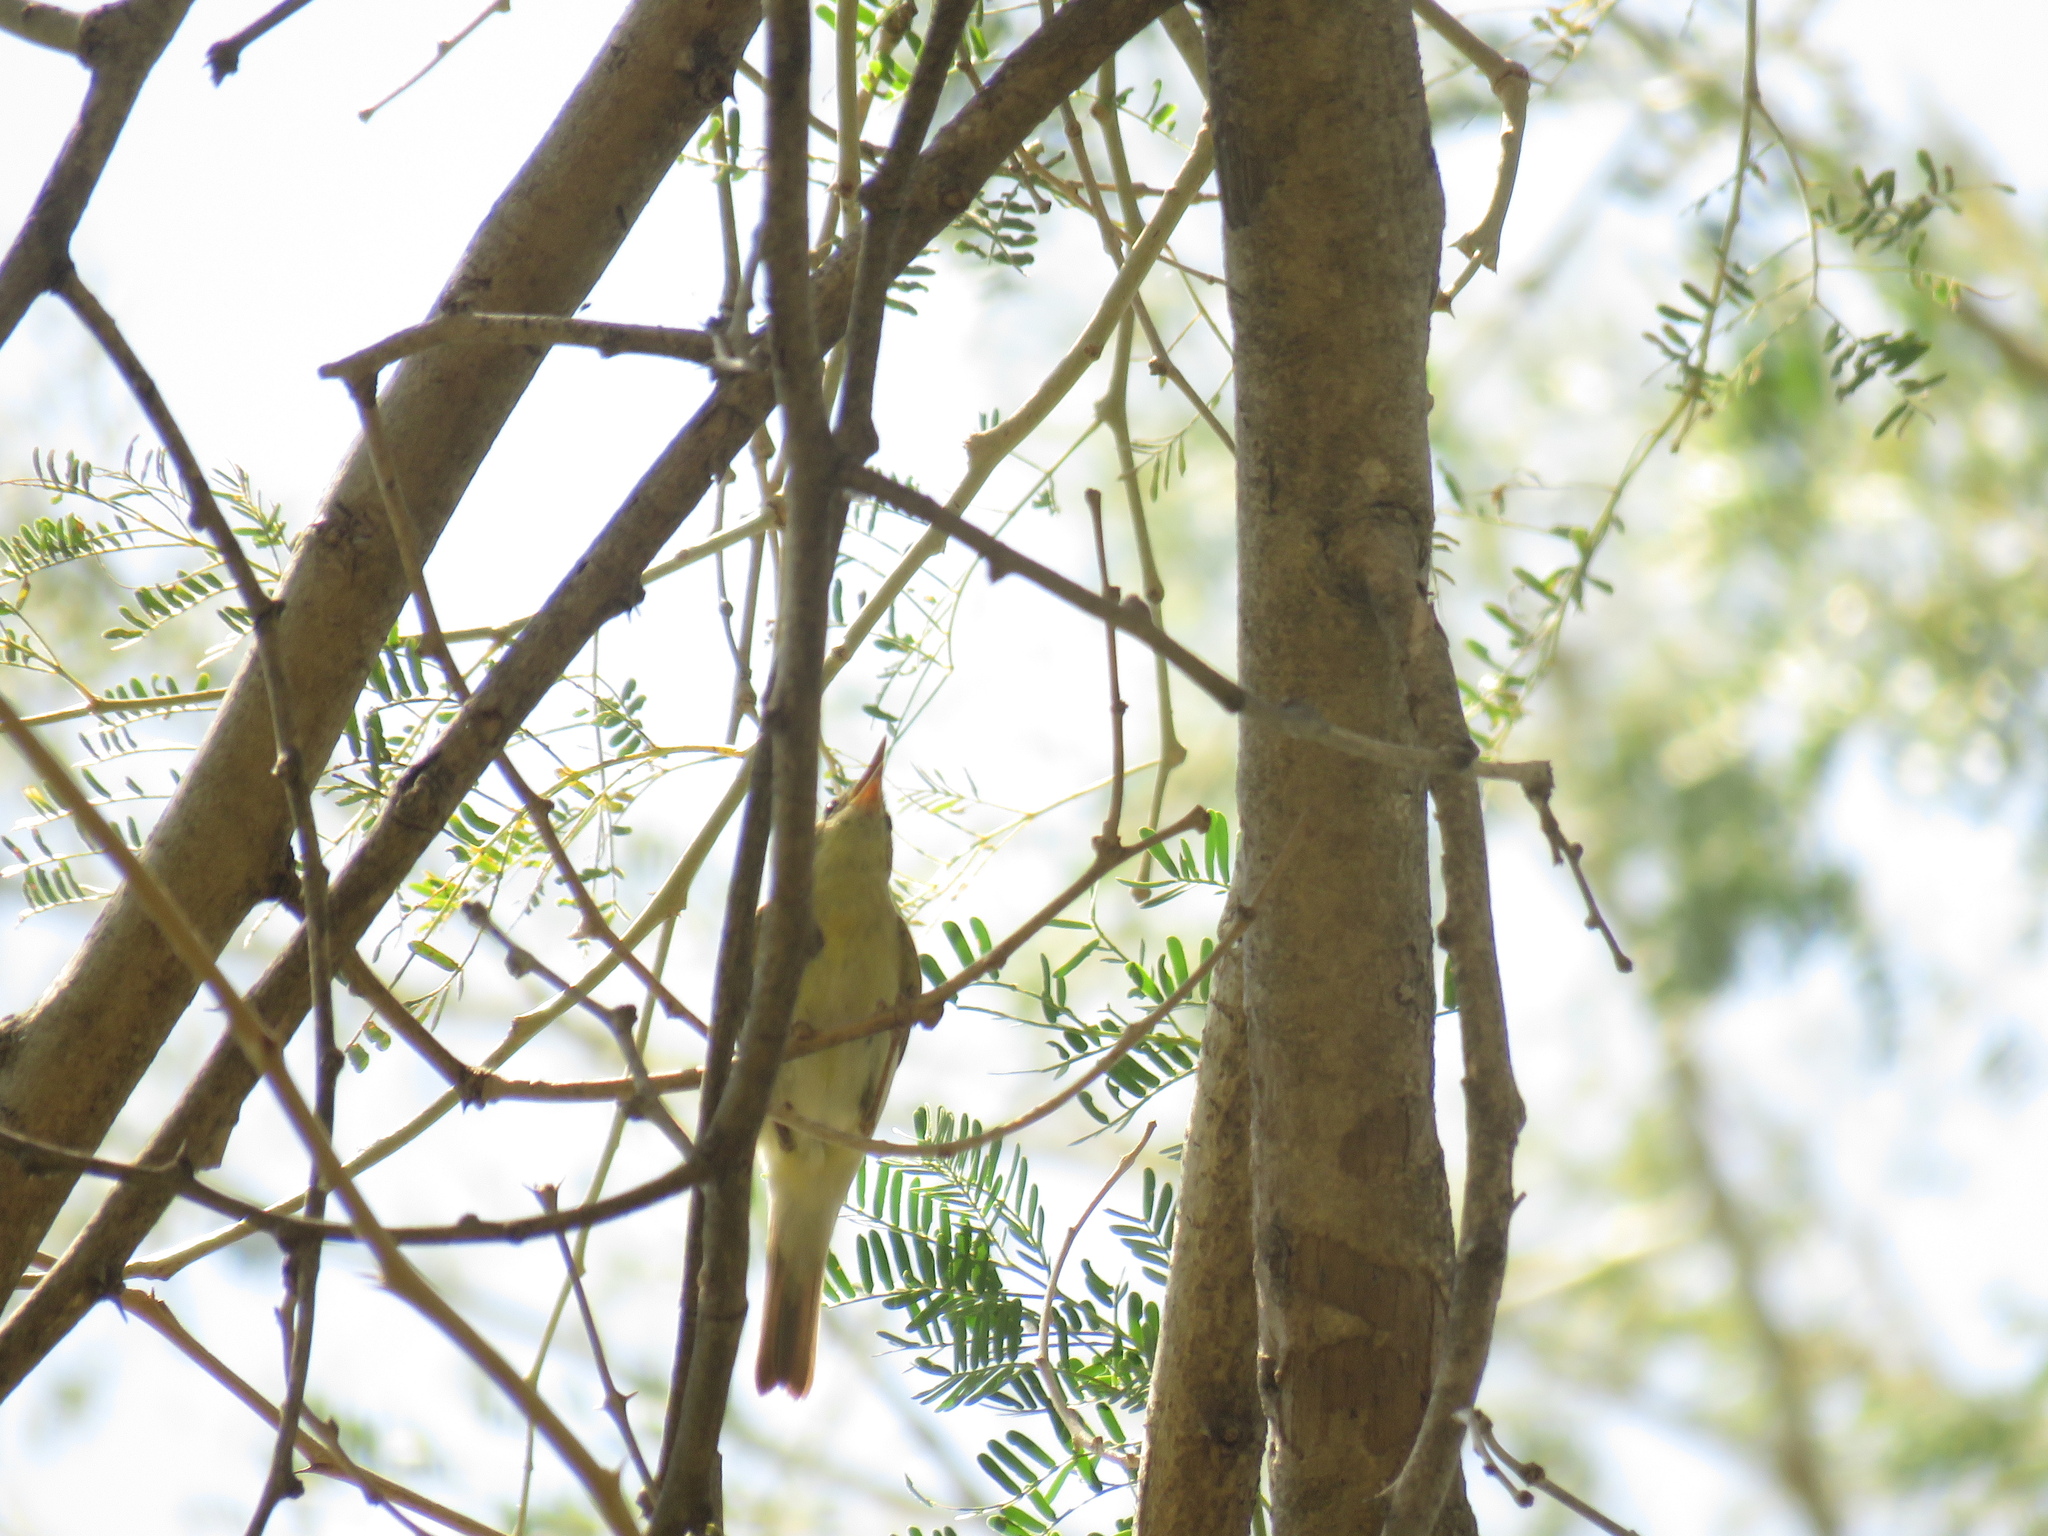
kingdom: Animalia
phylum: Chordata
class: Aves
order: Passeriformes
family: Acrocephalidae
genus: Hippolais
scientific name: Hippolais icterina
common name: Icterine warbler
